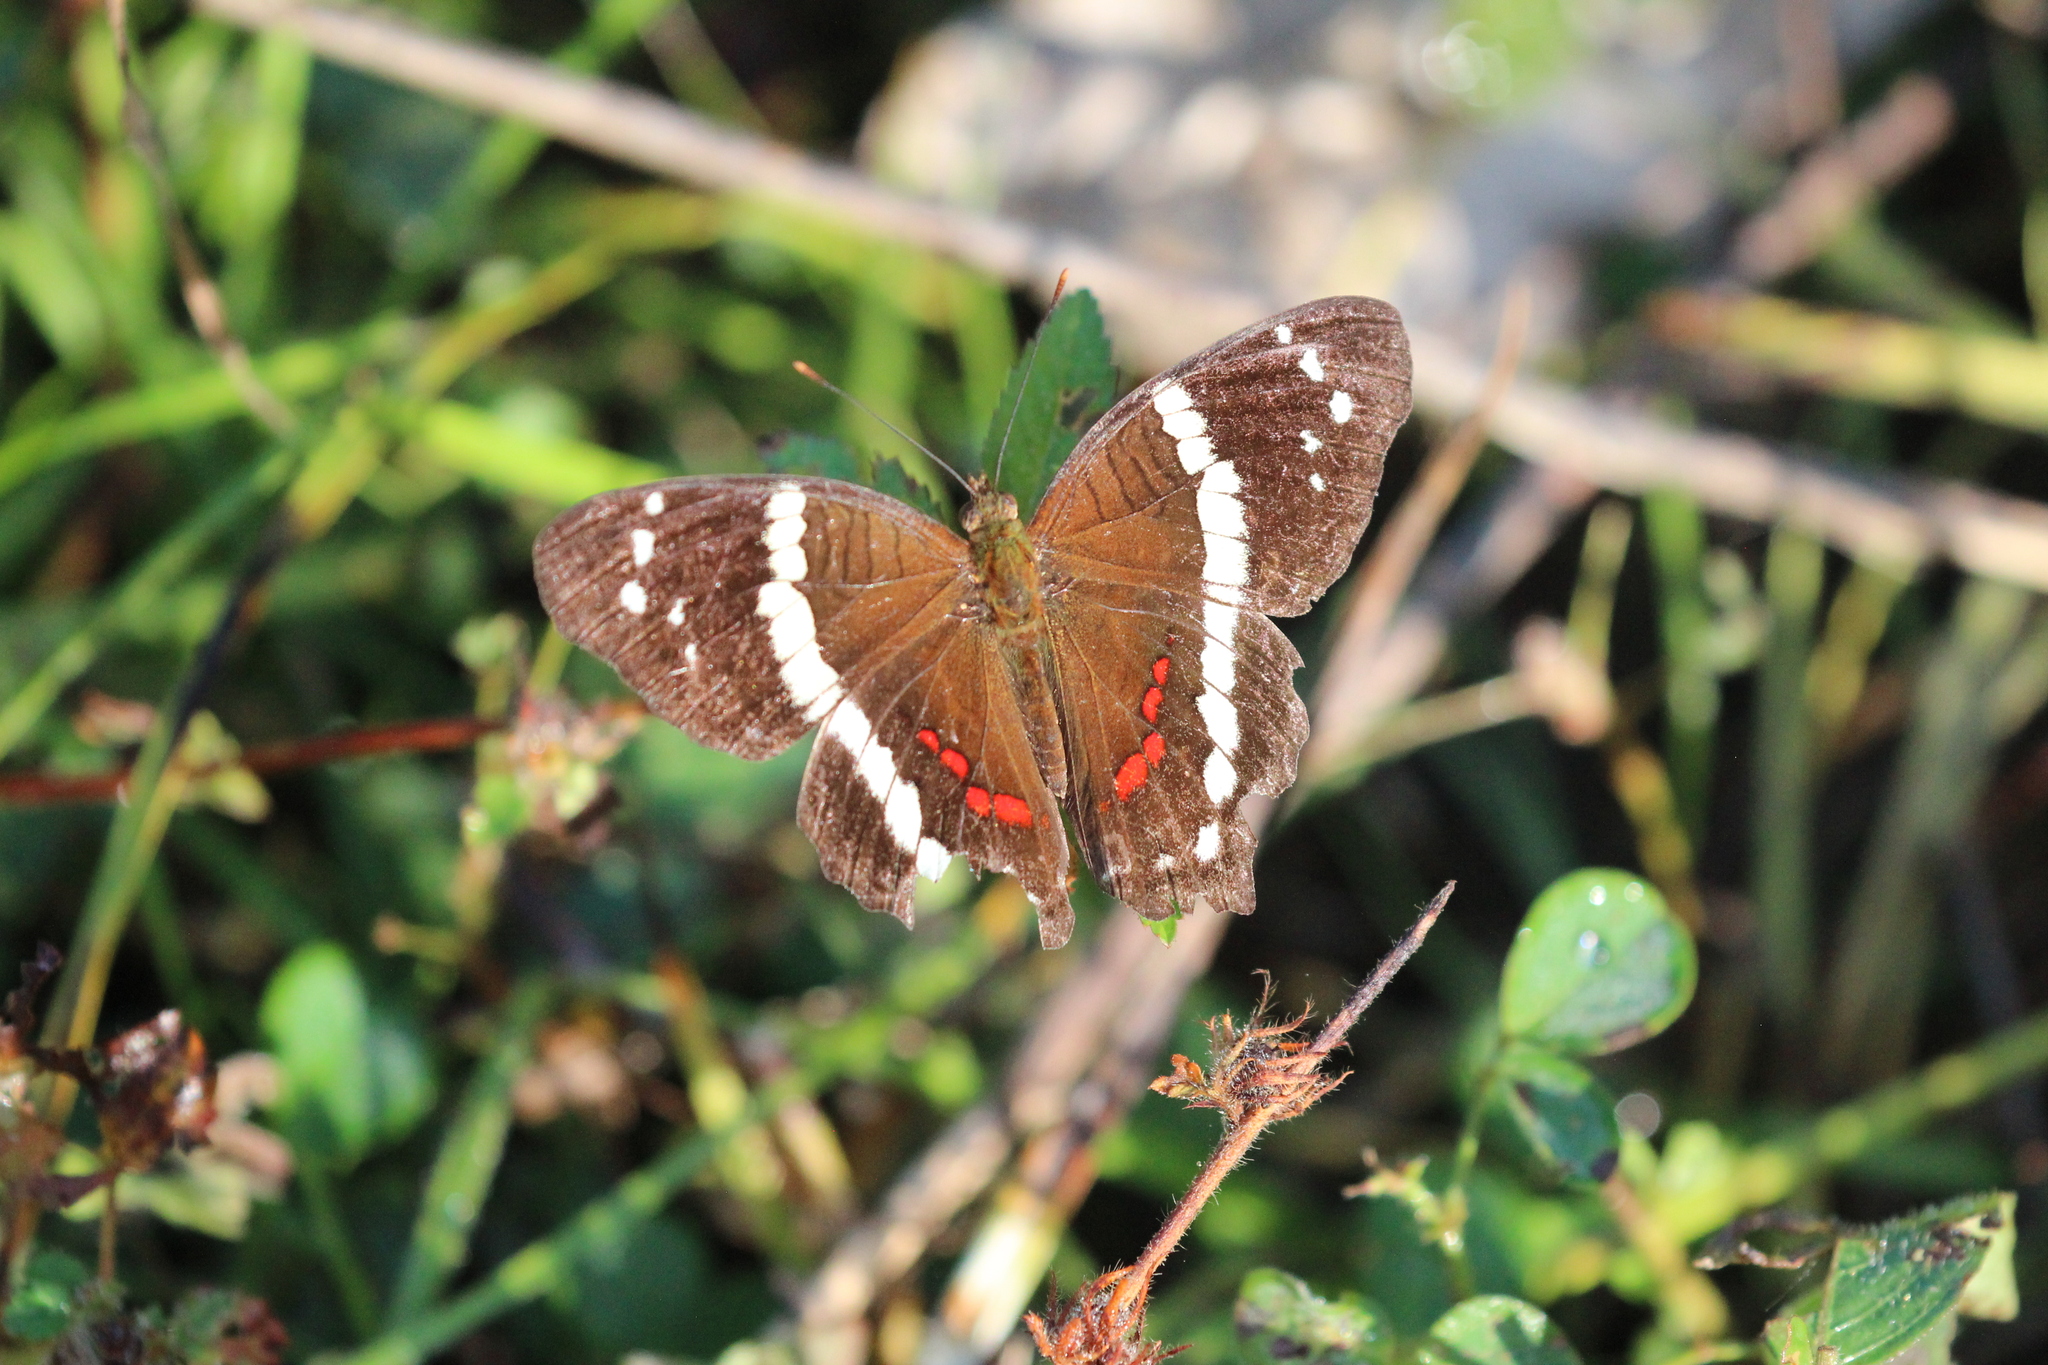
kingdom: Animalia
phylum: Arthropoda
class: Insecta
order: Lepidoptera
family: Nymphalidae
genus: Anartia
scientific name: Anartia fatima
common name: Banded peacock
